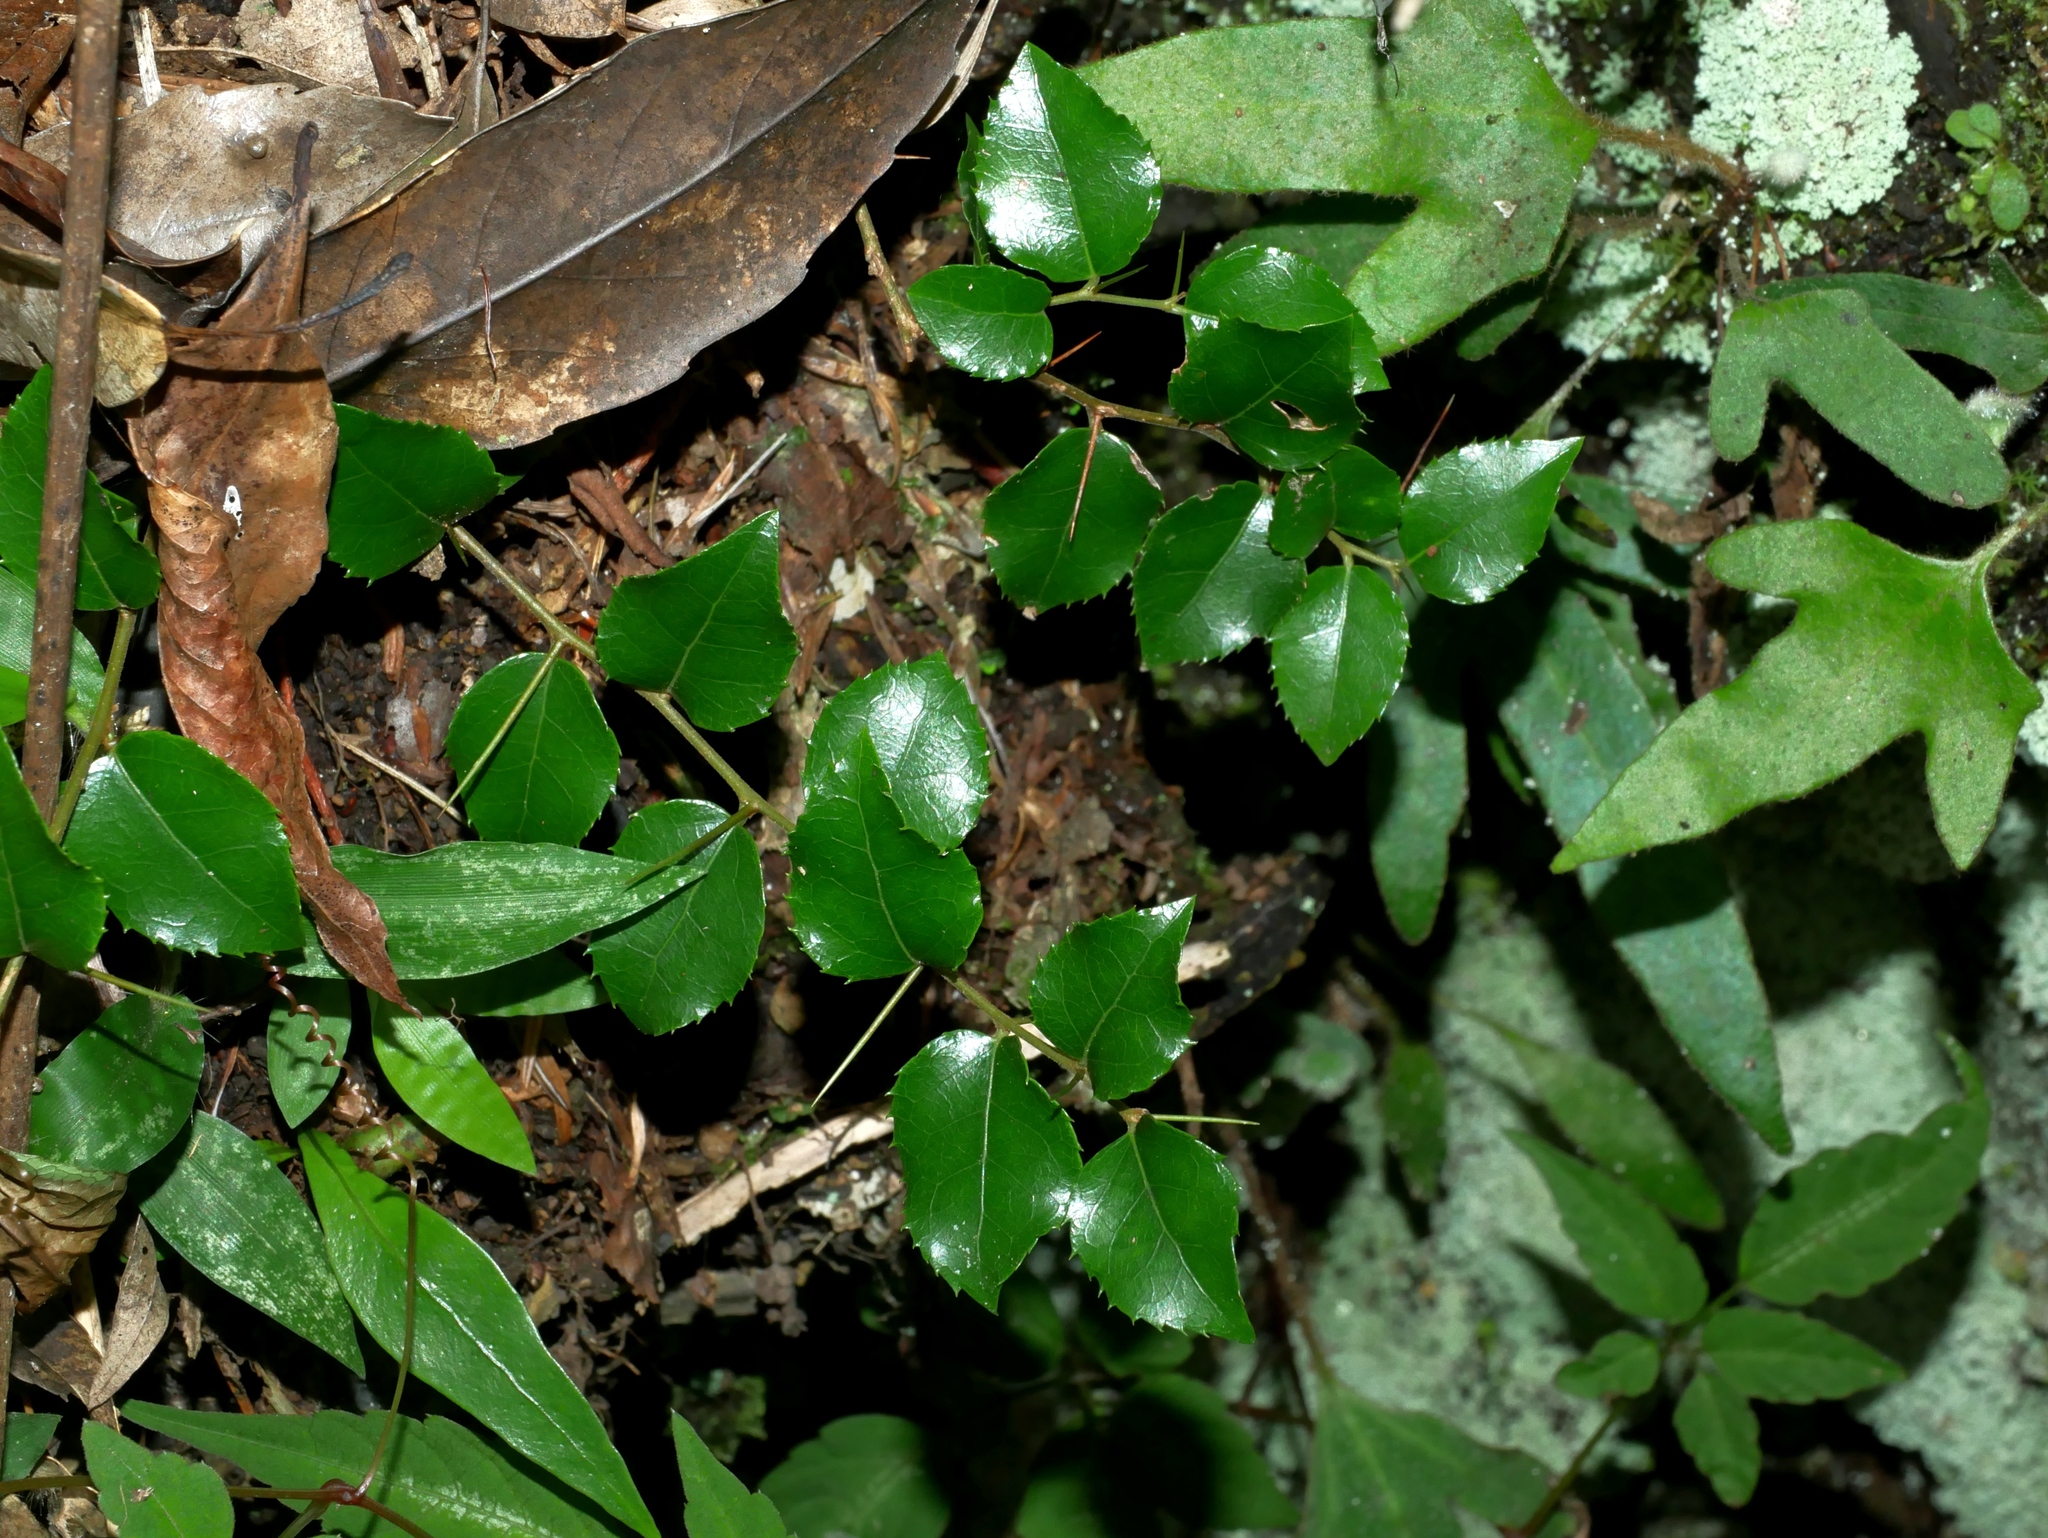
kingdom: Plantae
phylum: Tracheophyta
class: Magnoliopsida
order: Malpighiales
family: Salicaceae
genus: Xylosma
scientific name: Xylosma racemosum
